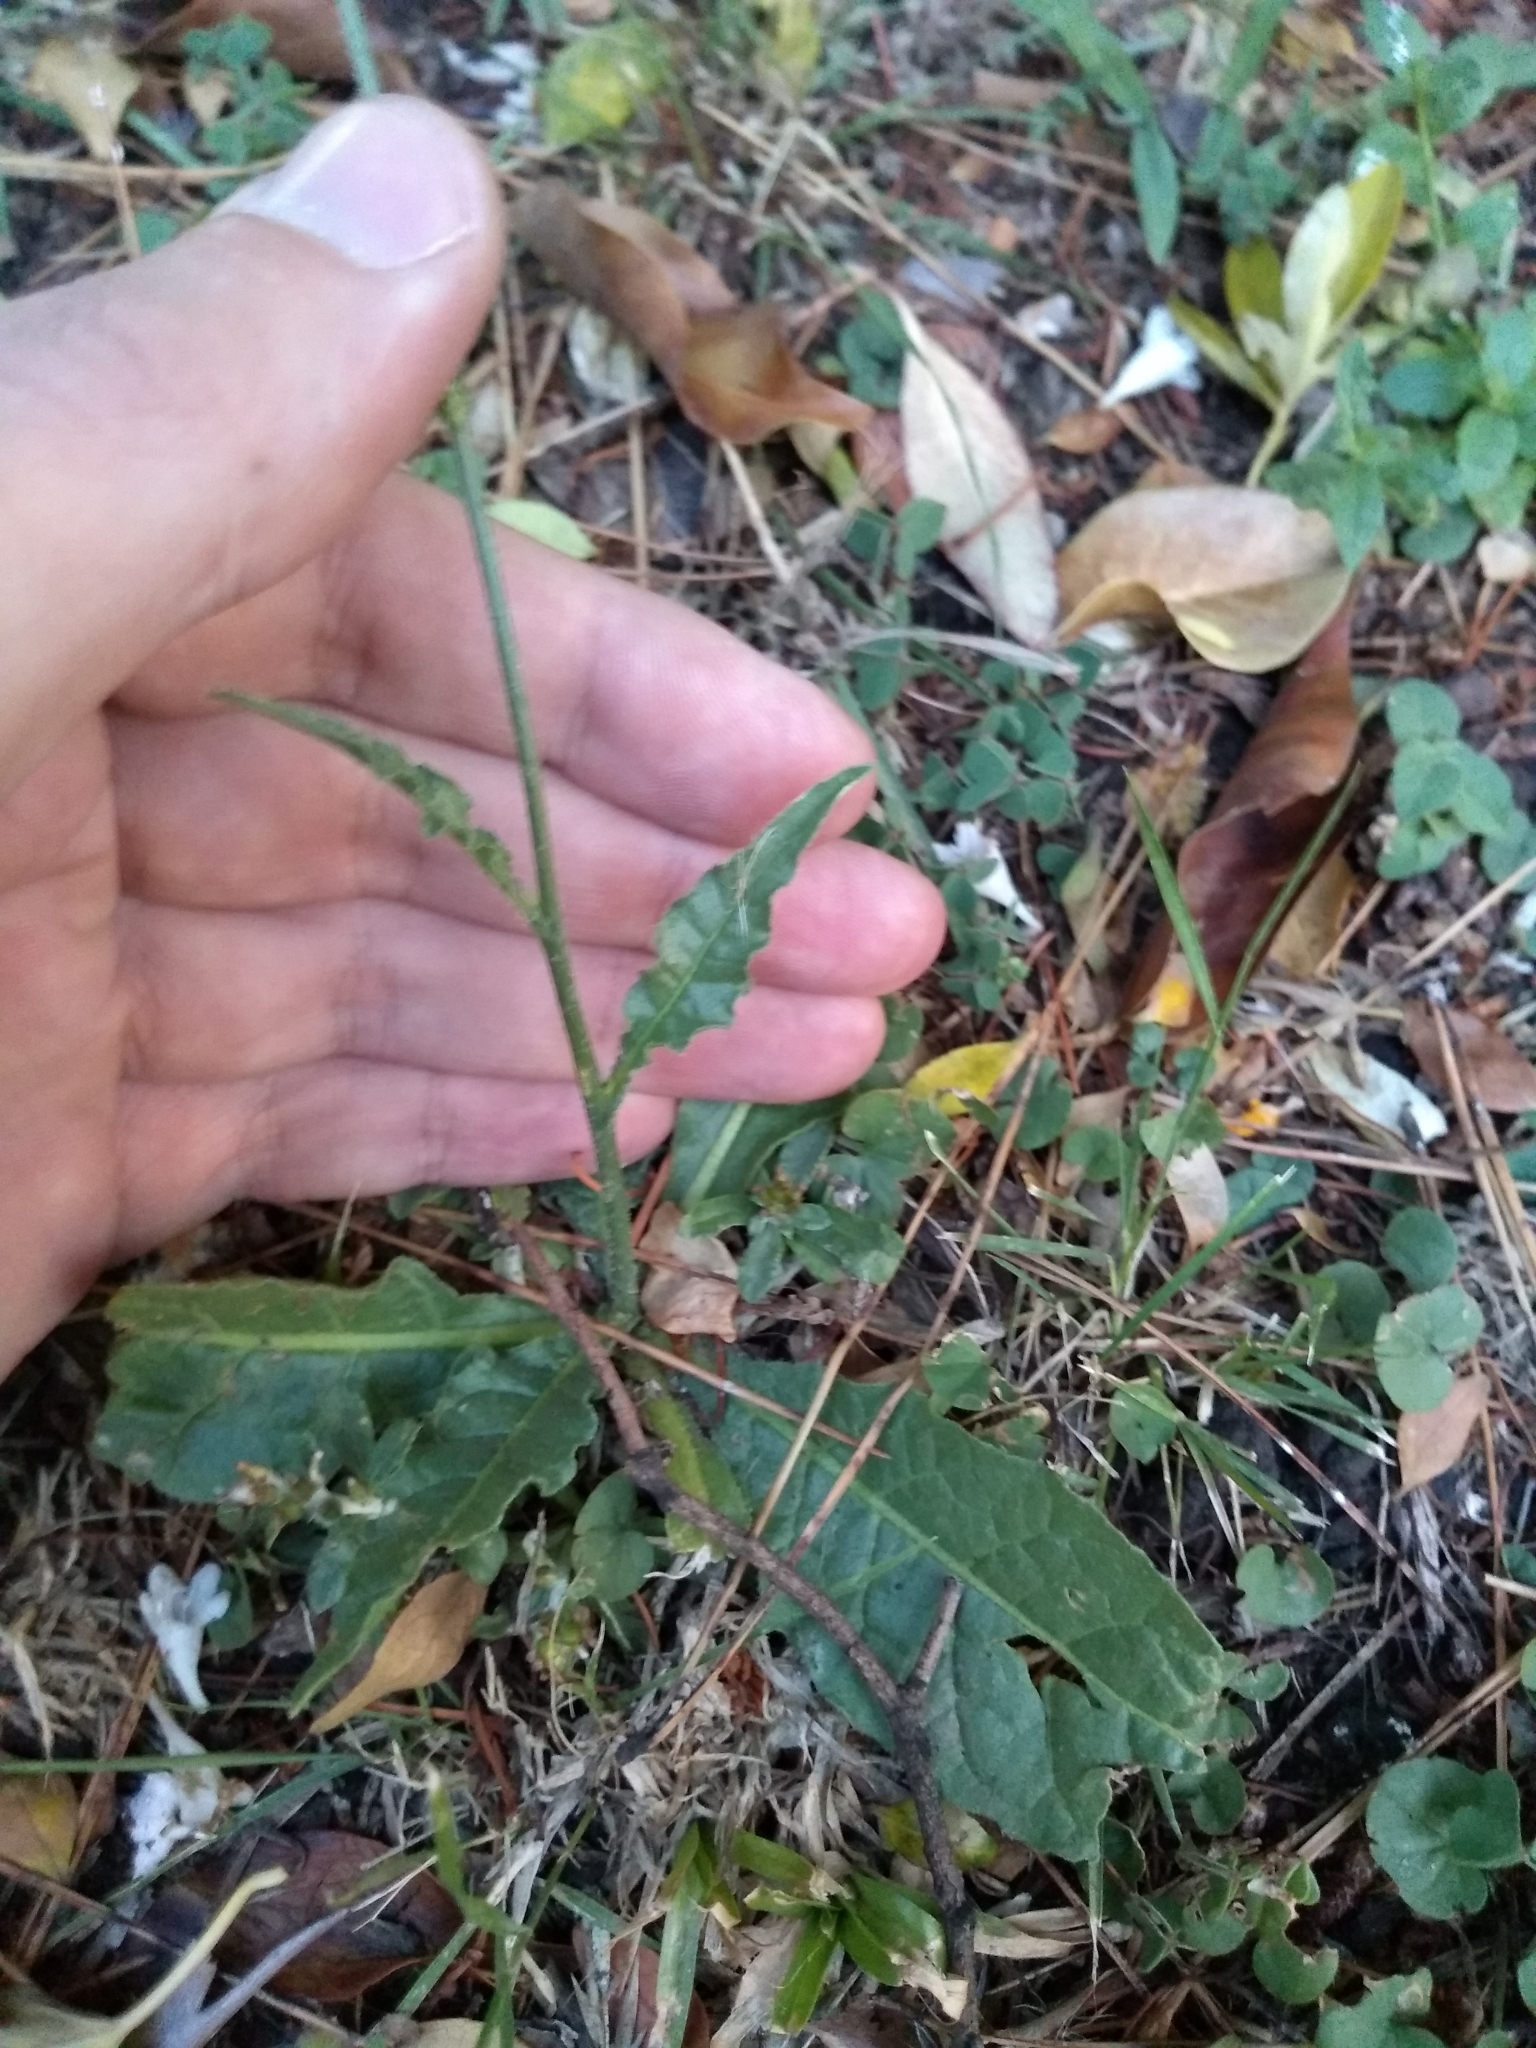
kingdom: Plantae
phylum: Tracheophyta
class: Magnoliopsida
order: Solanales
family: Solanaceae
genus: Nicotiana
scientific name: Nicotiana longiflora
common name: Long-flowered tobacco
